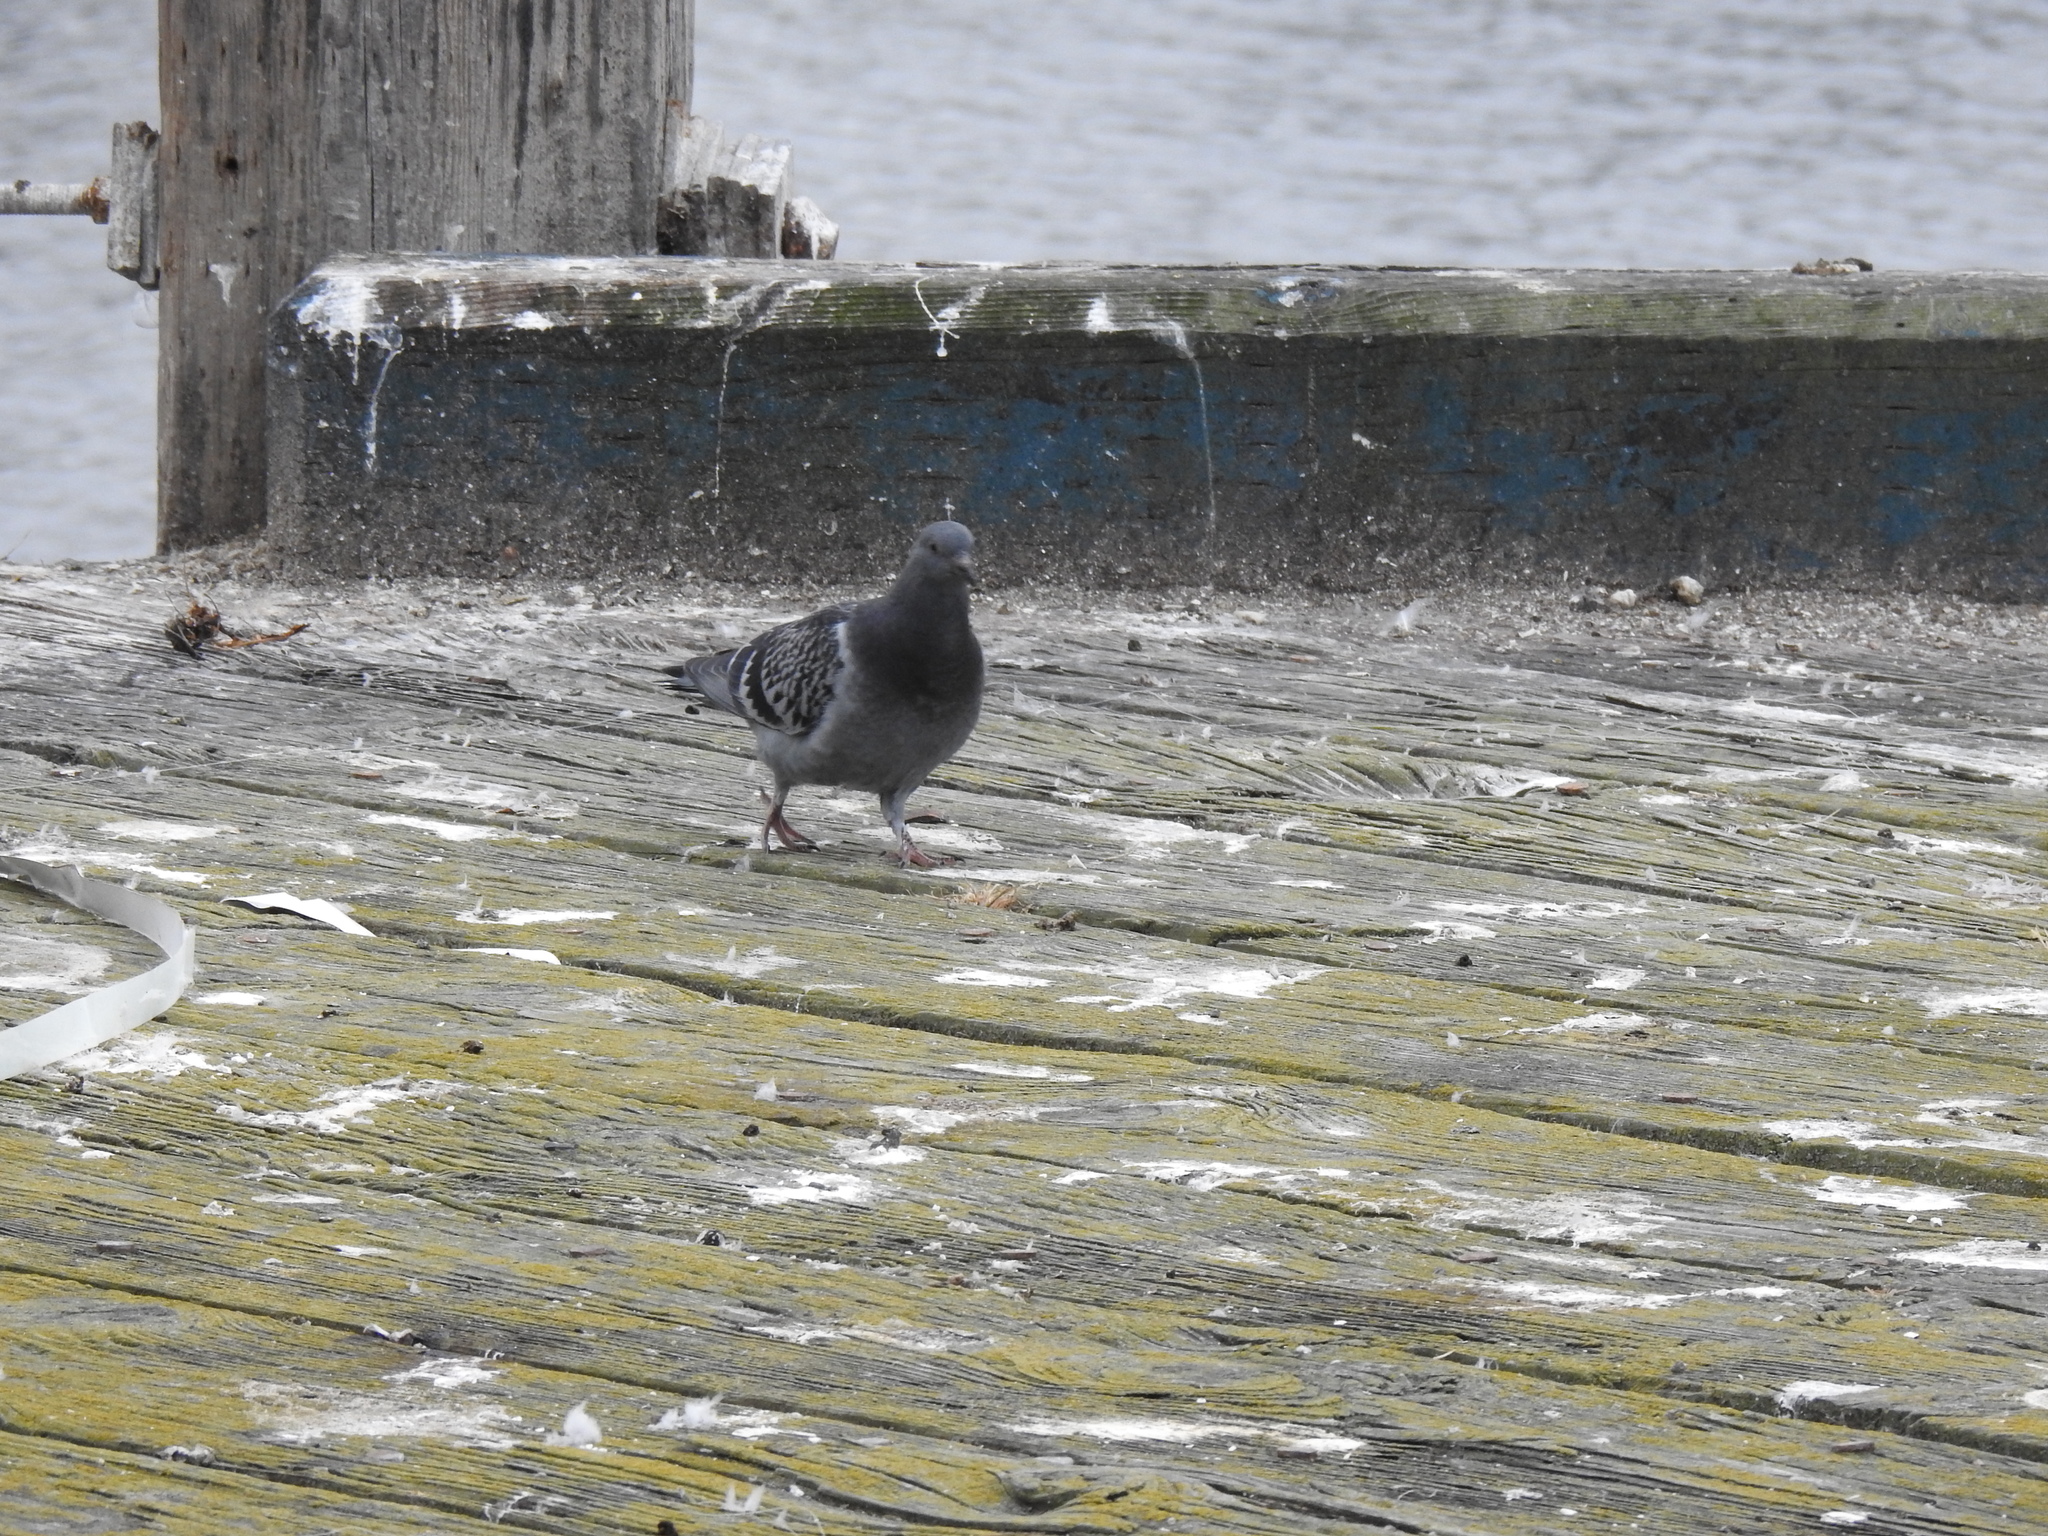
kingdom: Animalia
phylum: Chordata
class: Aves
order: Columbiformes
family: Columbidae
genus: Columba
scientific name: Columba livia
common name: Rock pigeon
